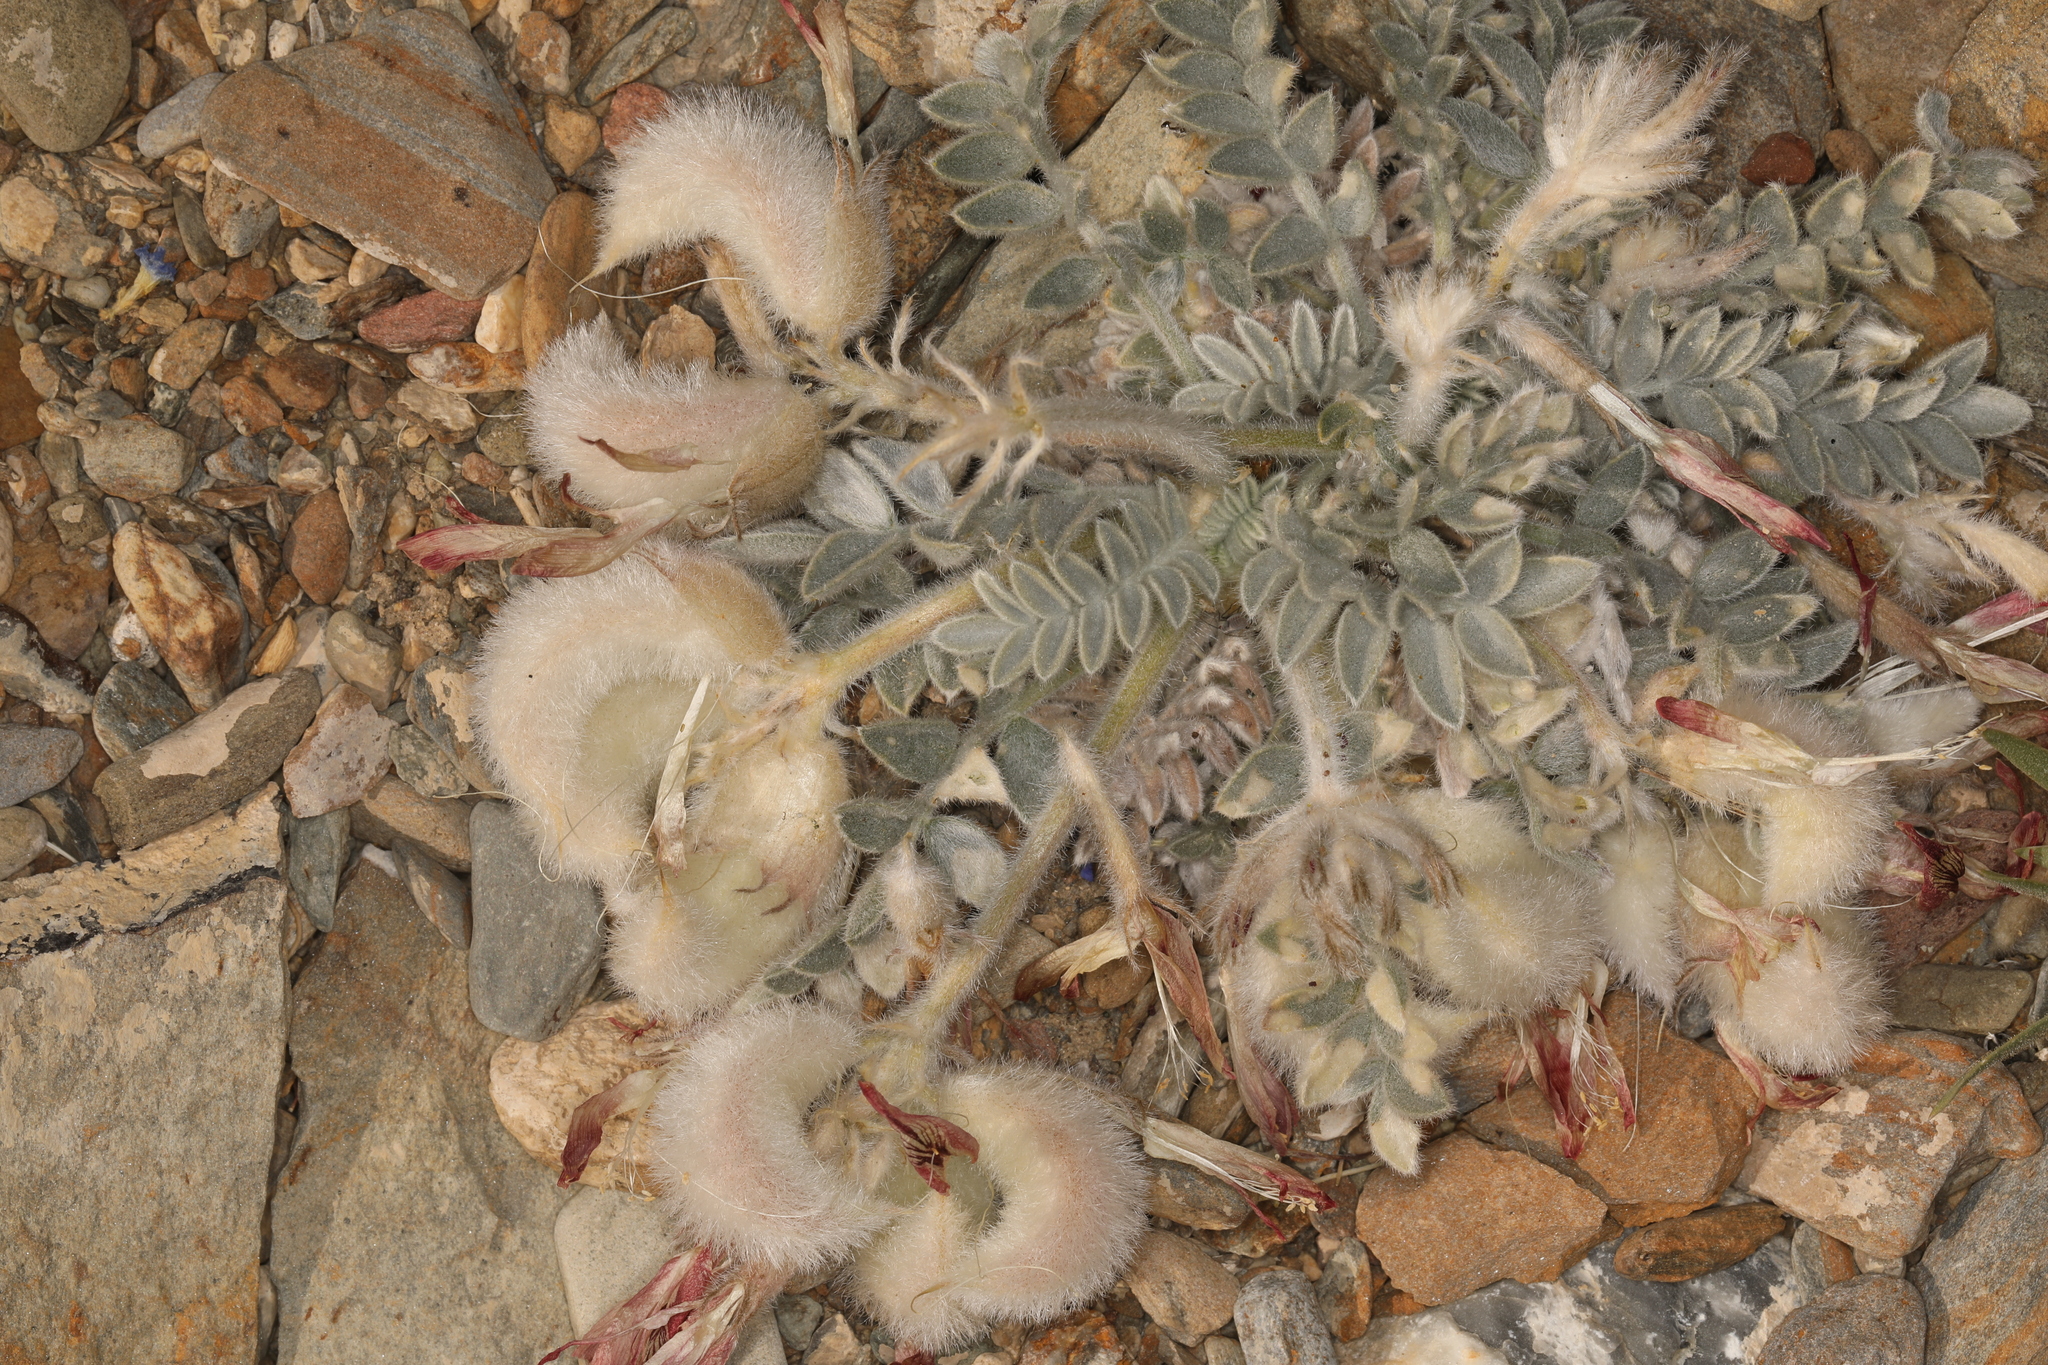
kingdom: Plantae
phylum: Tracheophyta
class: Magnoliopsida
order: Fabales
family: Fabaceae
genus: Astragalus
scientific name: Astragalus coccineus
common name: Scarlet milk-vetch
